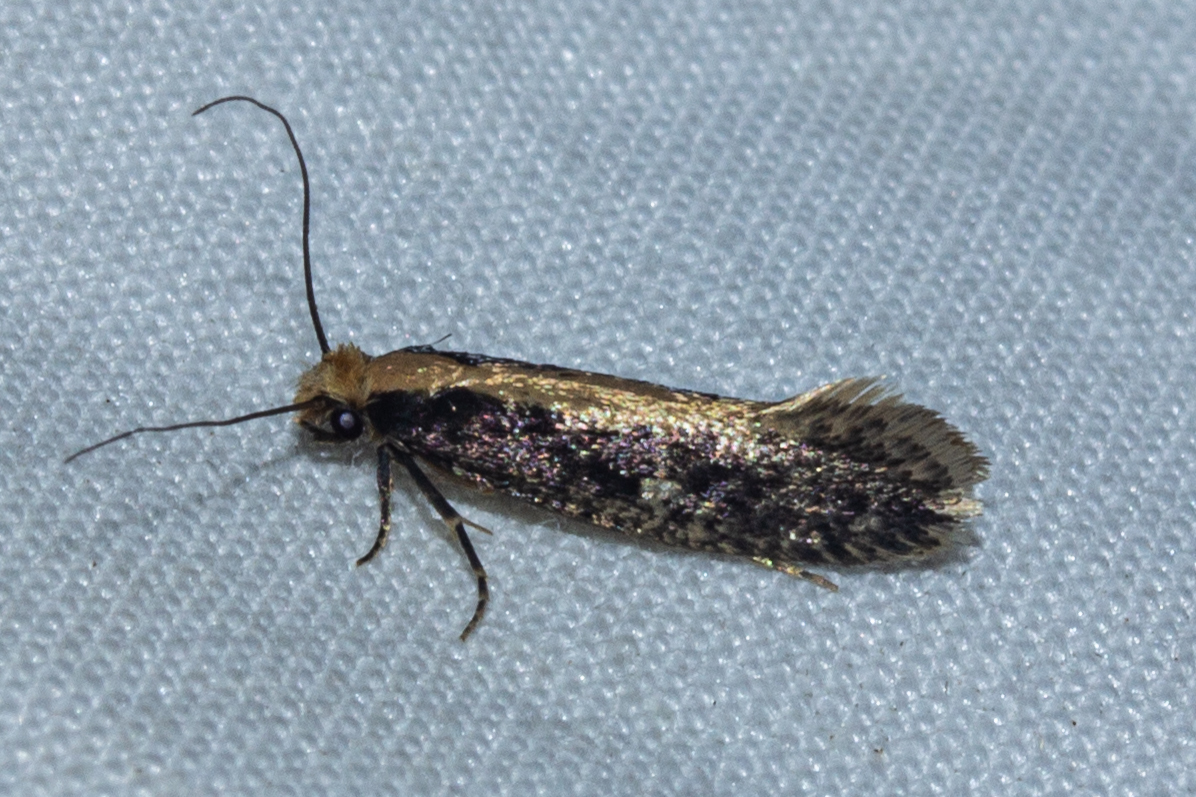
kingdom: Animalia
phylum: Arthropoda
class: Insecta
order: Lepidoptera
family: Tineidae
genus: Monopis
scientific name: Monopis crocicapitella
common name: Moth
